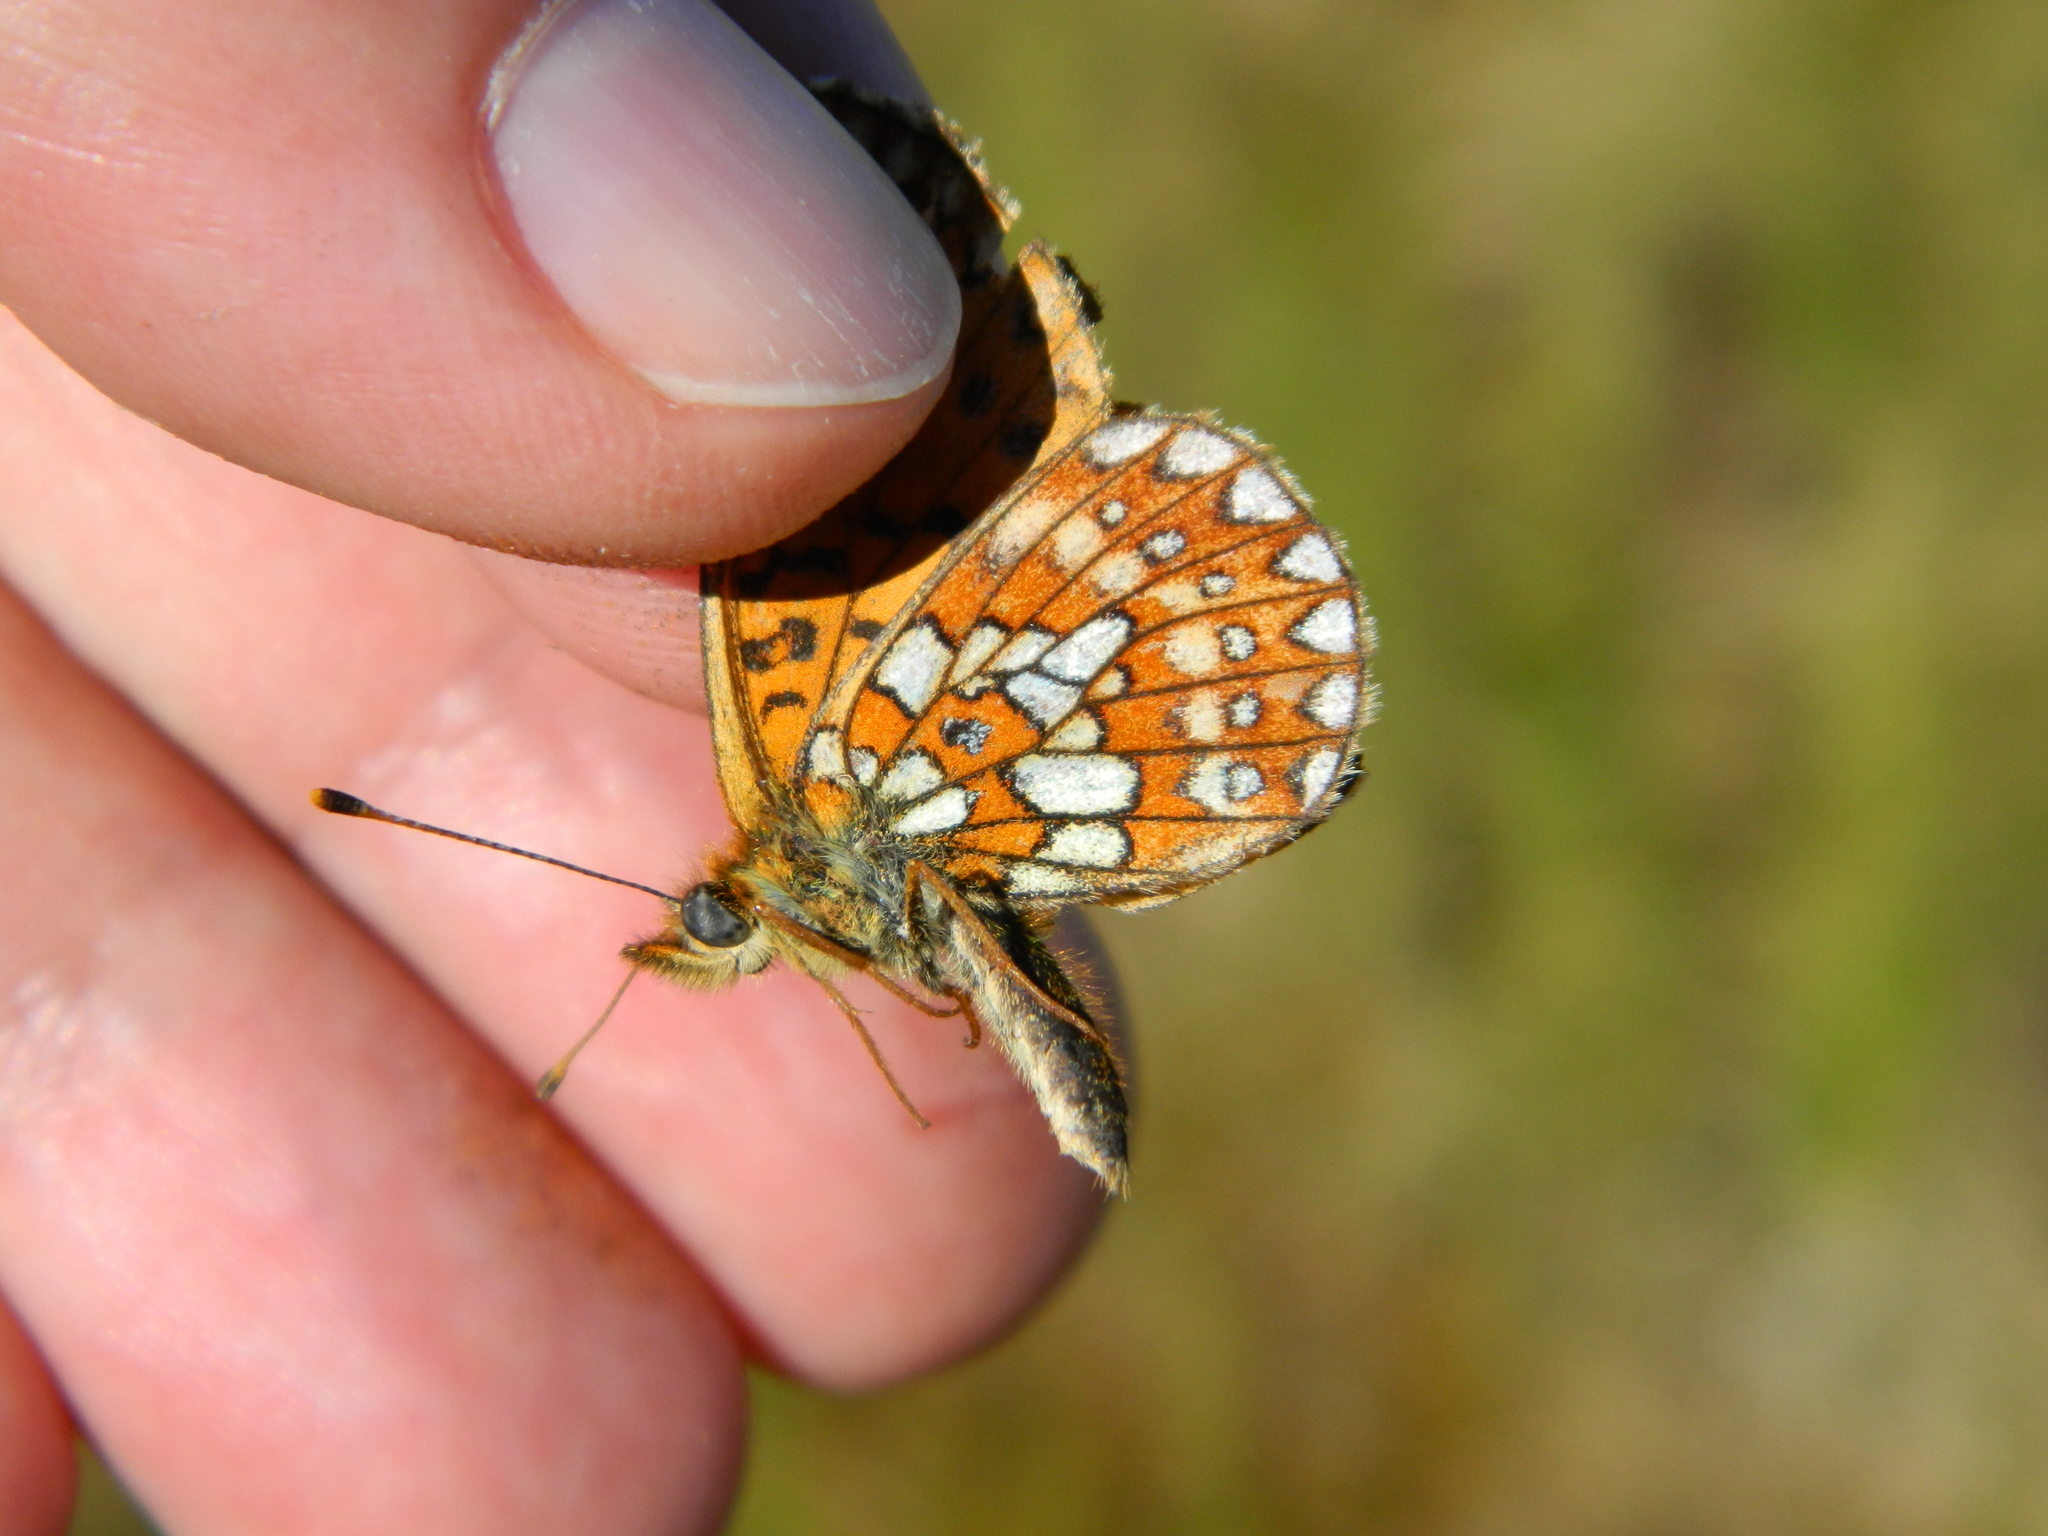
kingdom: Animalia
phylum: Arthropoda
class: Insecta
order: Lepidoptera
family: Nymphalidae
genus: Boloria
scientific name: Boloria eunomia
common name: Bog fritillary
